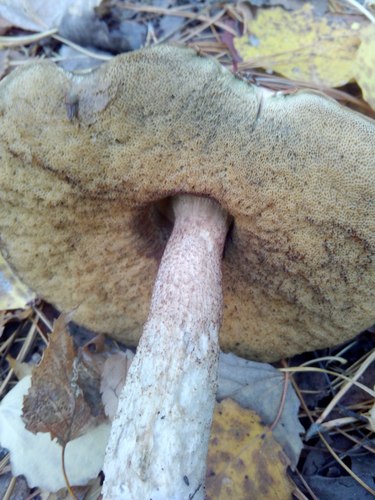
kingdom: Fungi
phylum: Basidiomycota
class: Agaricomycetes
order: Boletales
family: Boletaceae
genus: Leccinum
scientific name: Leccinum
